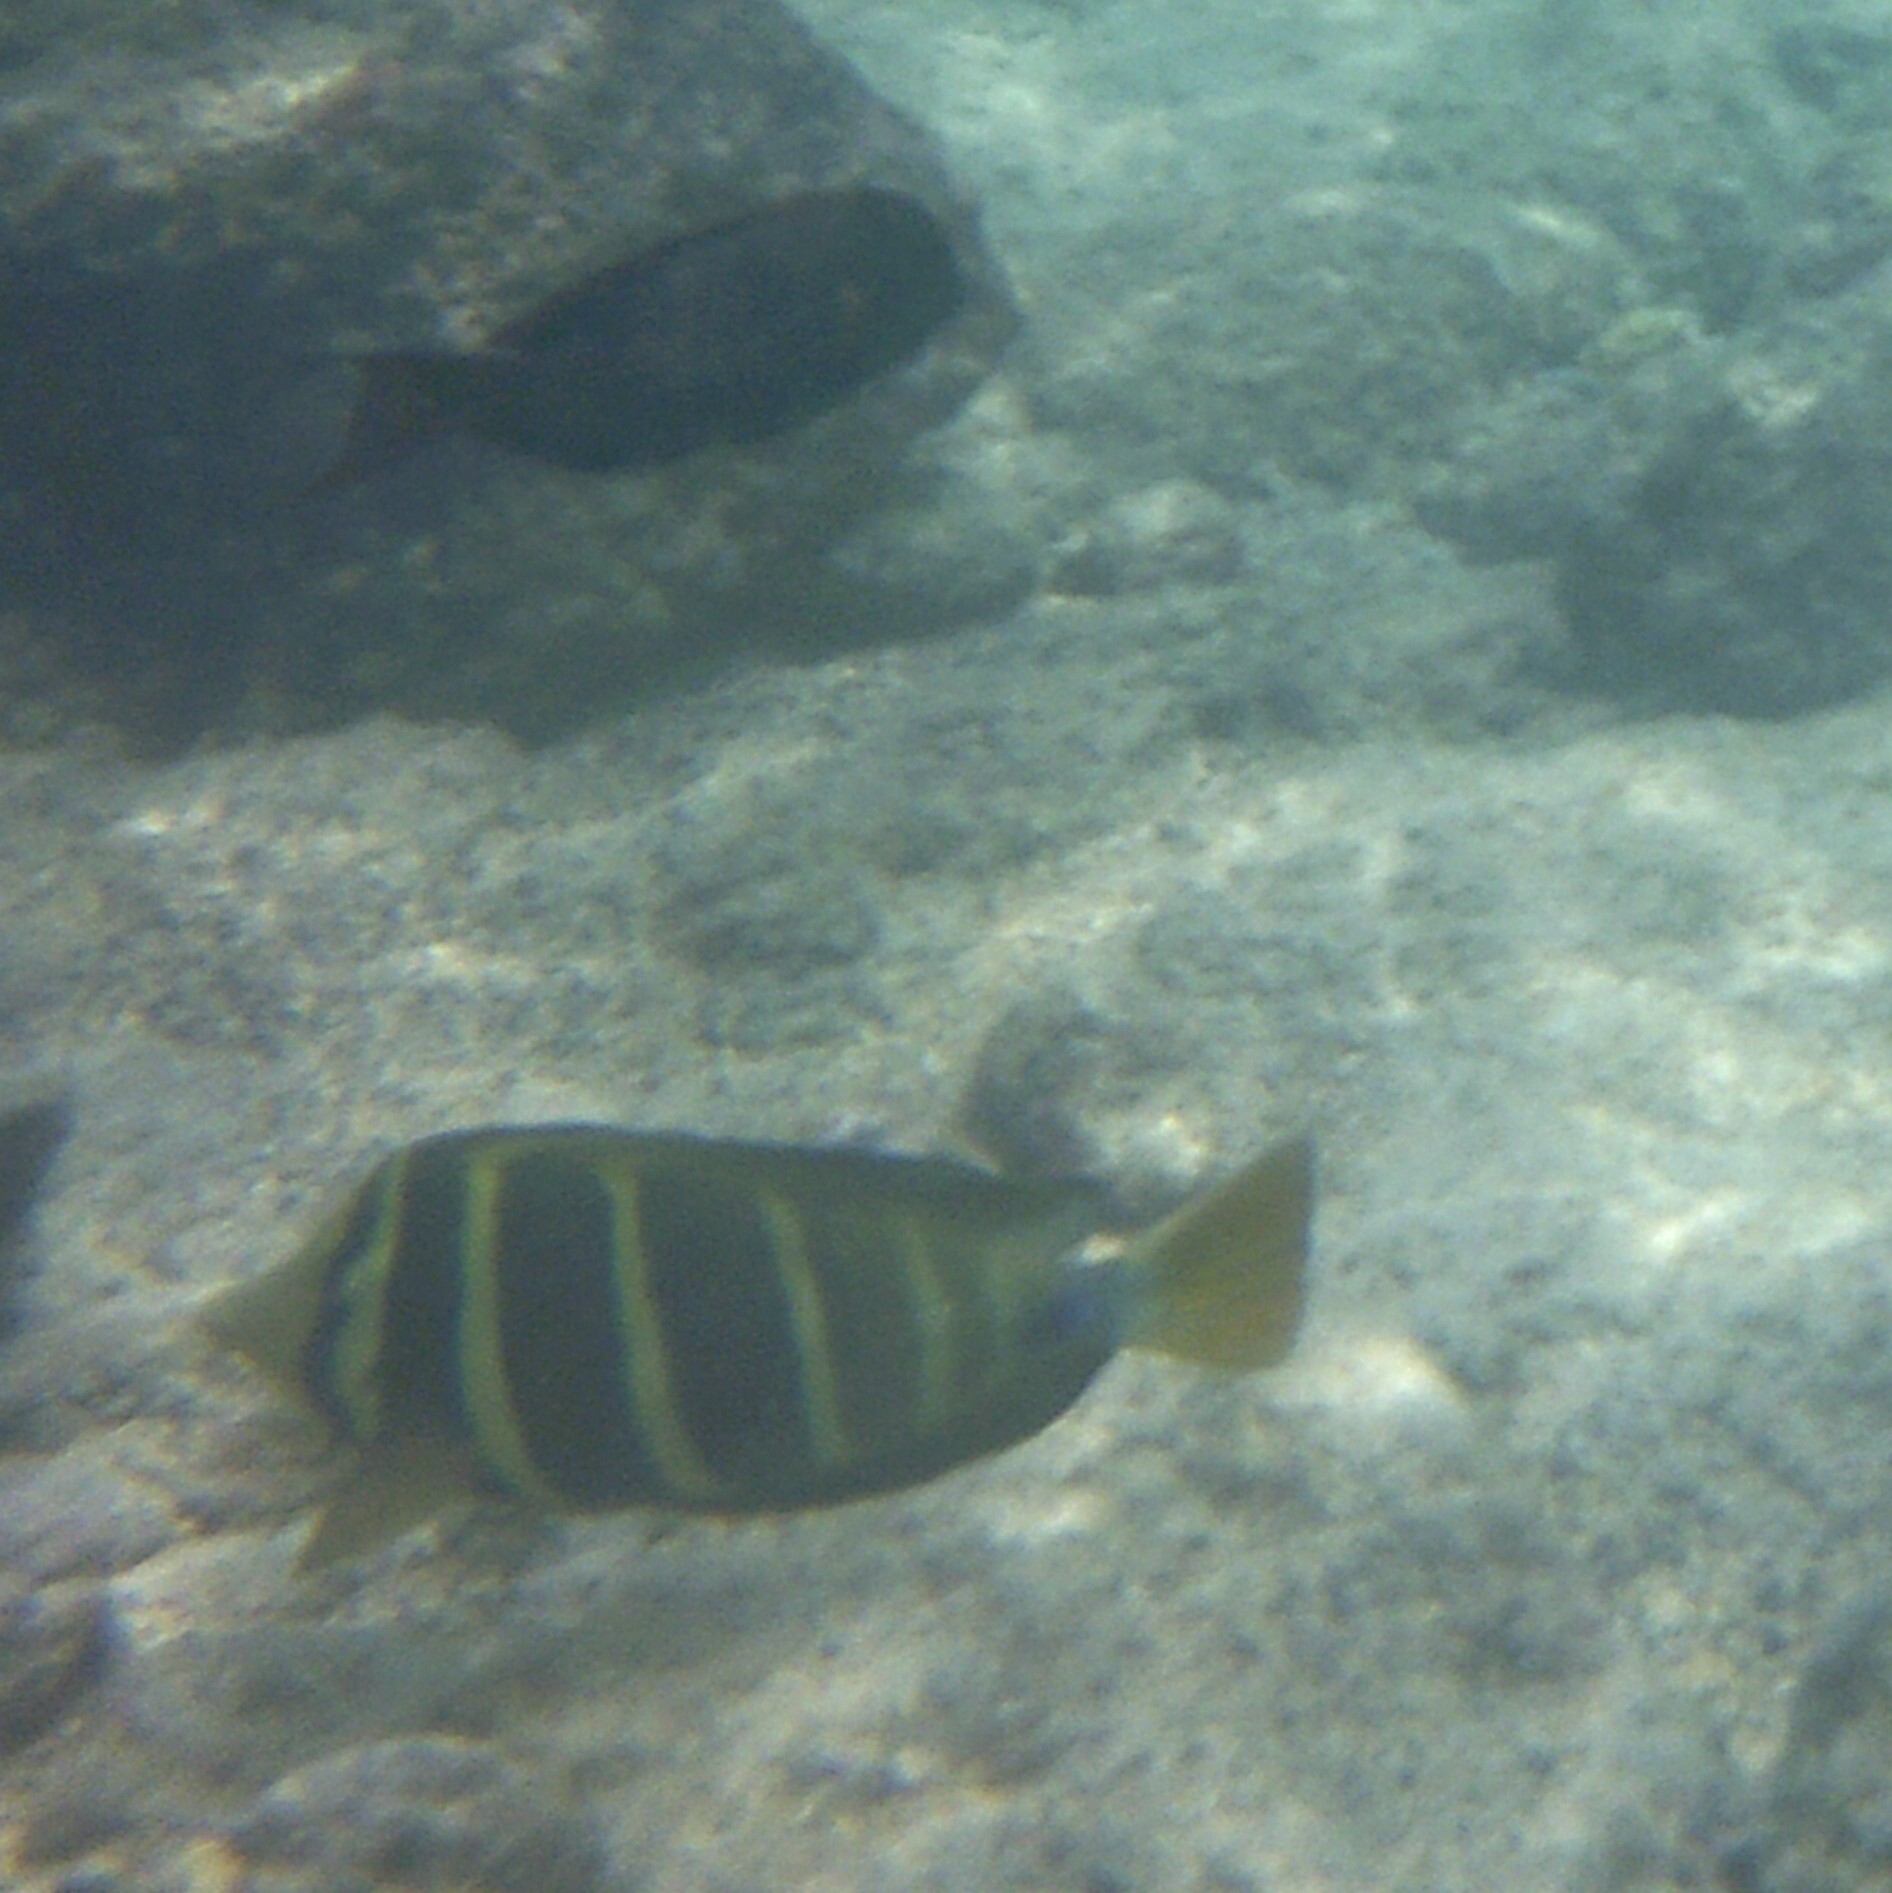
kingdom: Animalia
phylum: Chordata
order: Perciformes
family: Acanthuridae
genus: Zebrasoma
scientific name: Zebrasoma veliferum
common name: Sailfin surgeonfish
